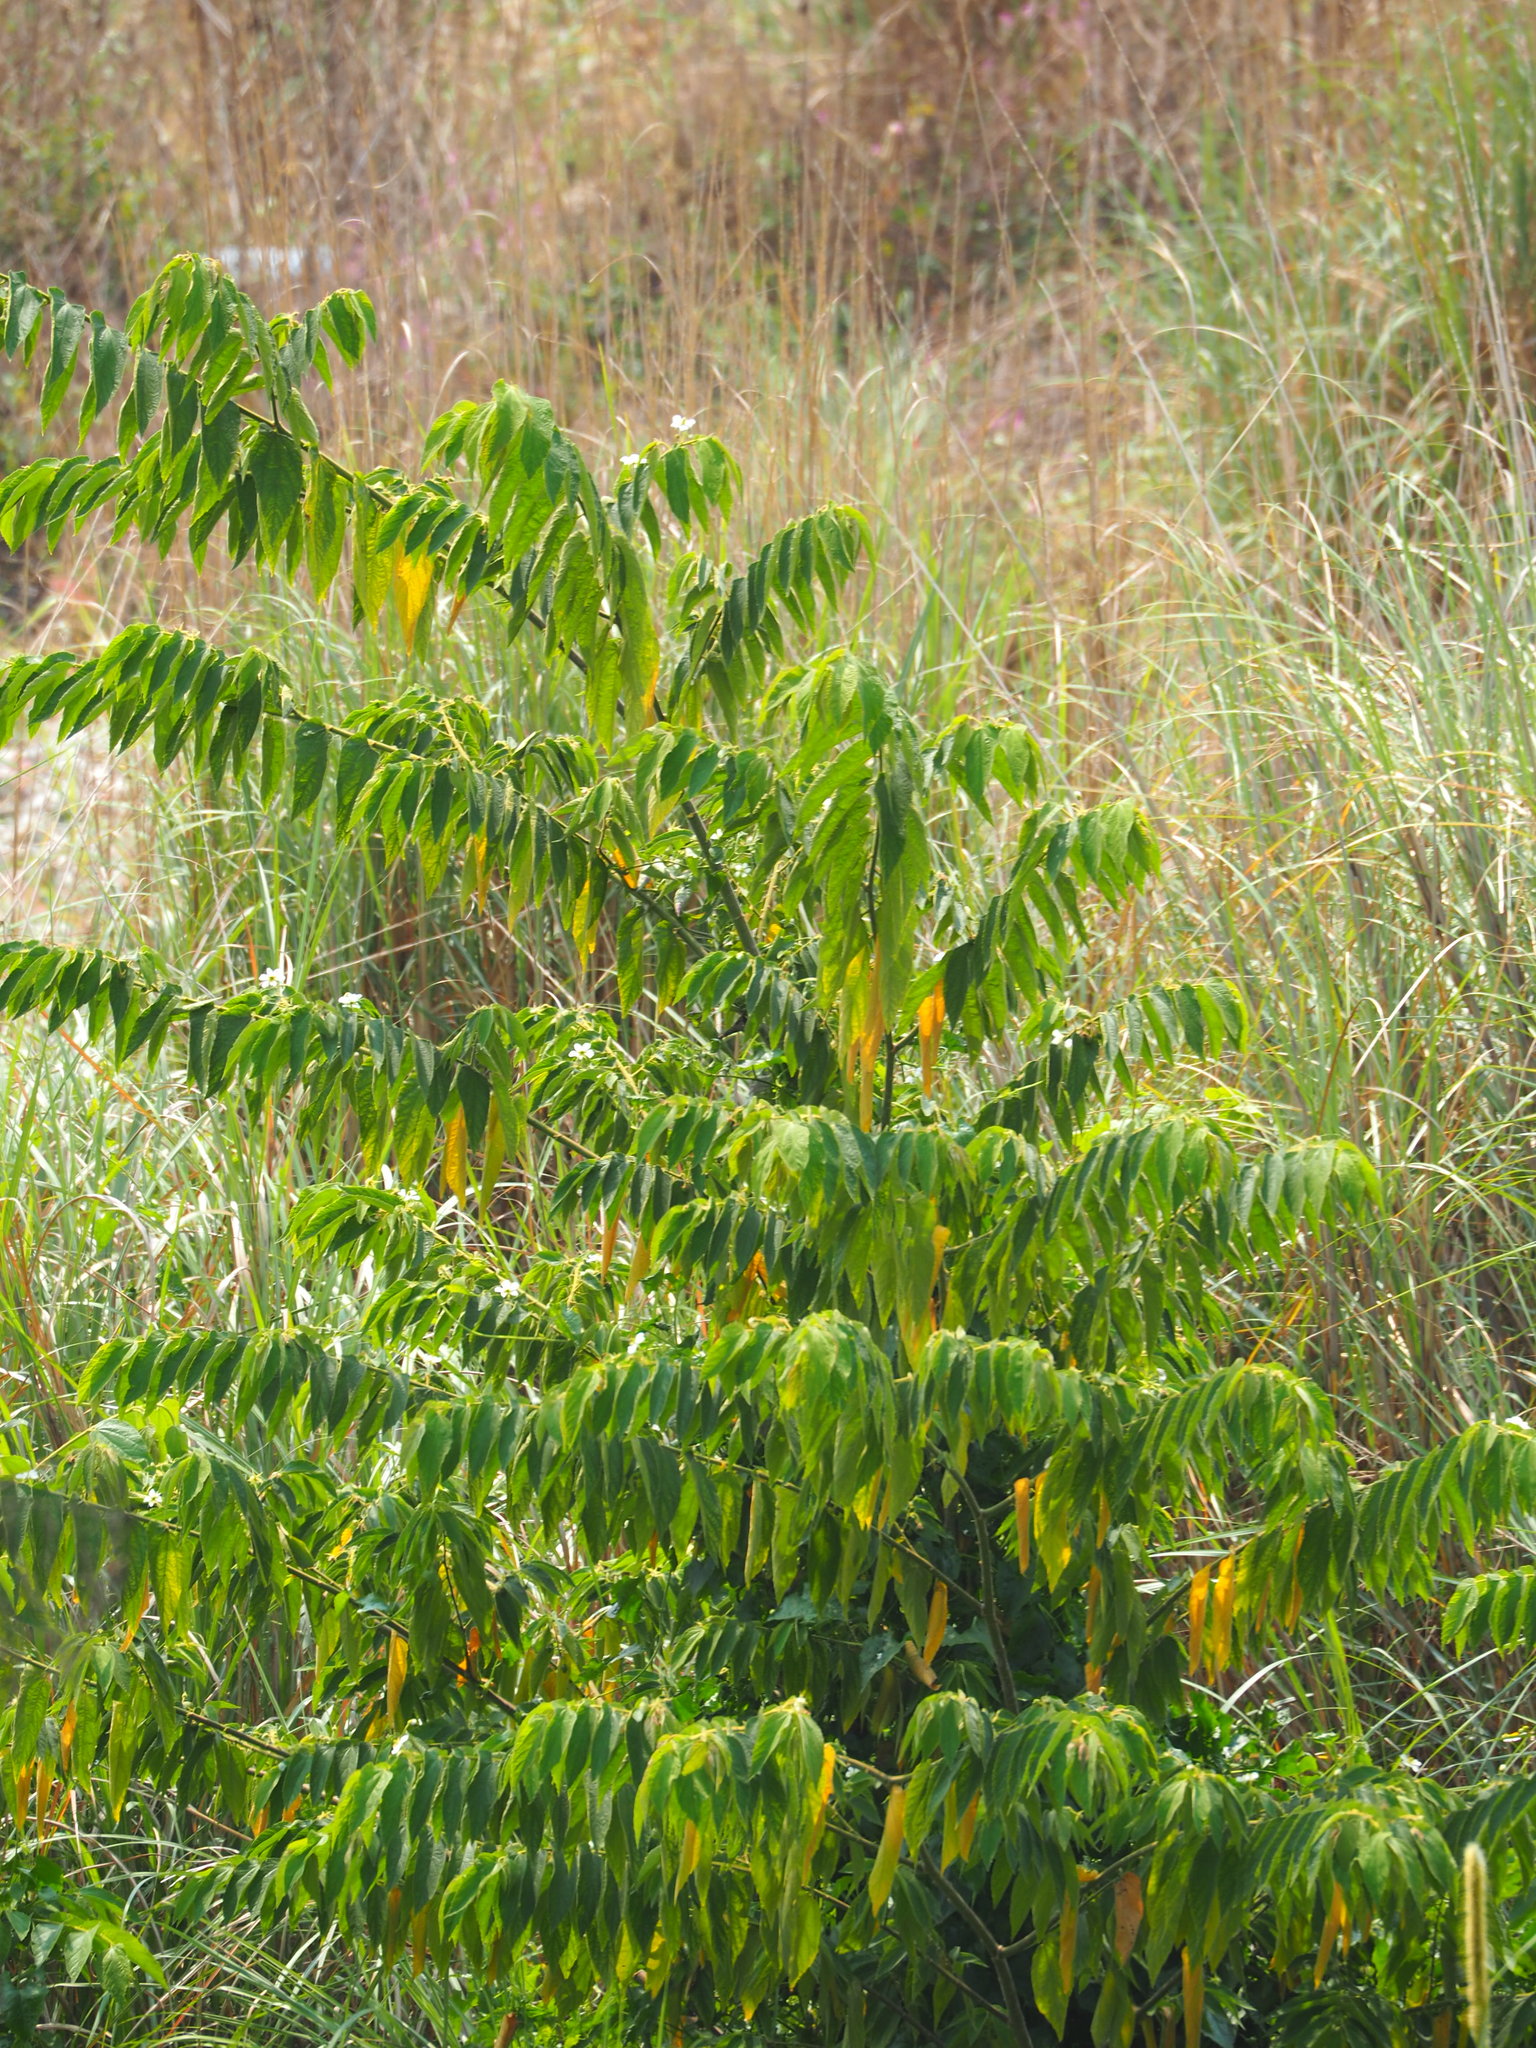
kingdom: Plantae
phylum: Tracheophyta
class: Magnoliopsida
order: Malvales
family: Muntingiaceae
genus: Muntingia
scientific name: Muntingia calabura
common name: Strawberrytree
